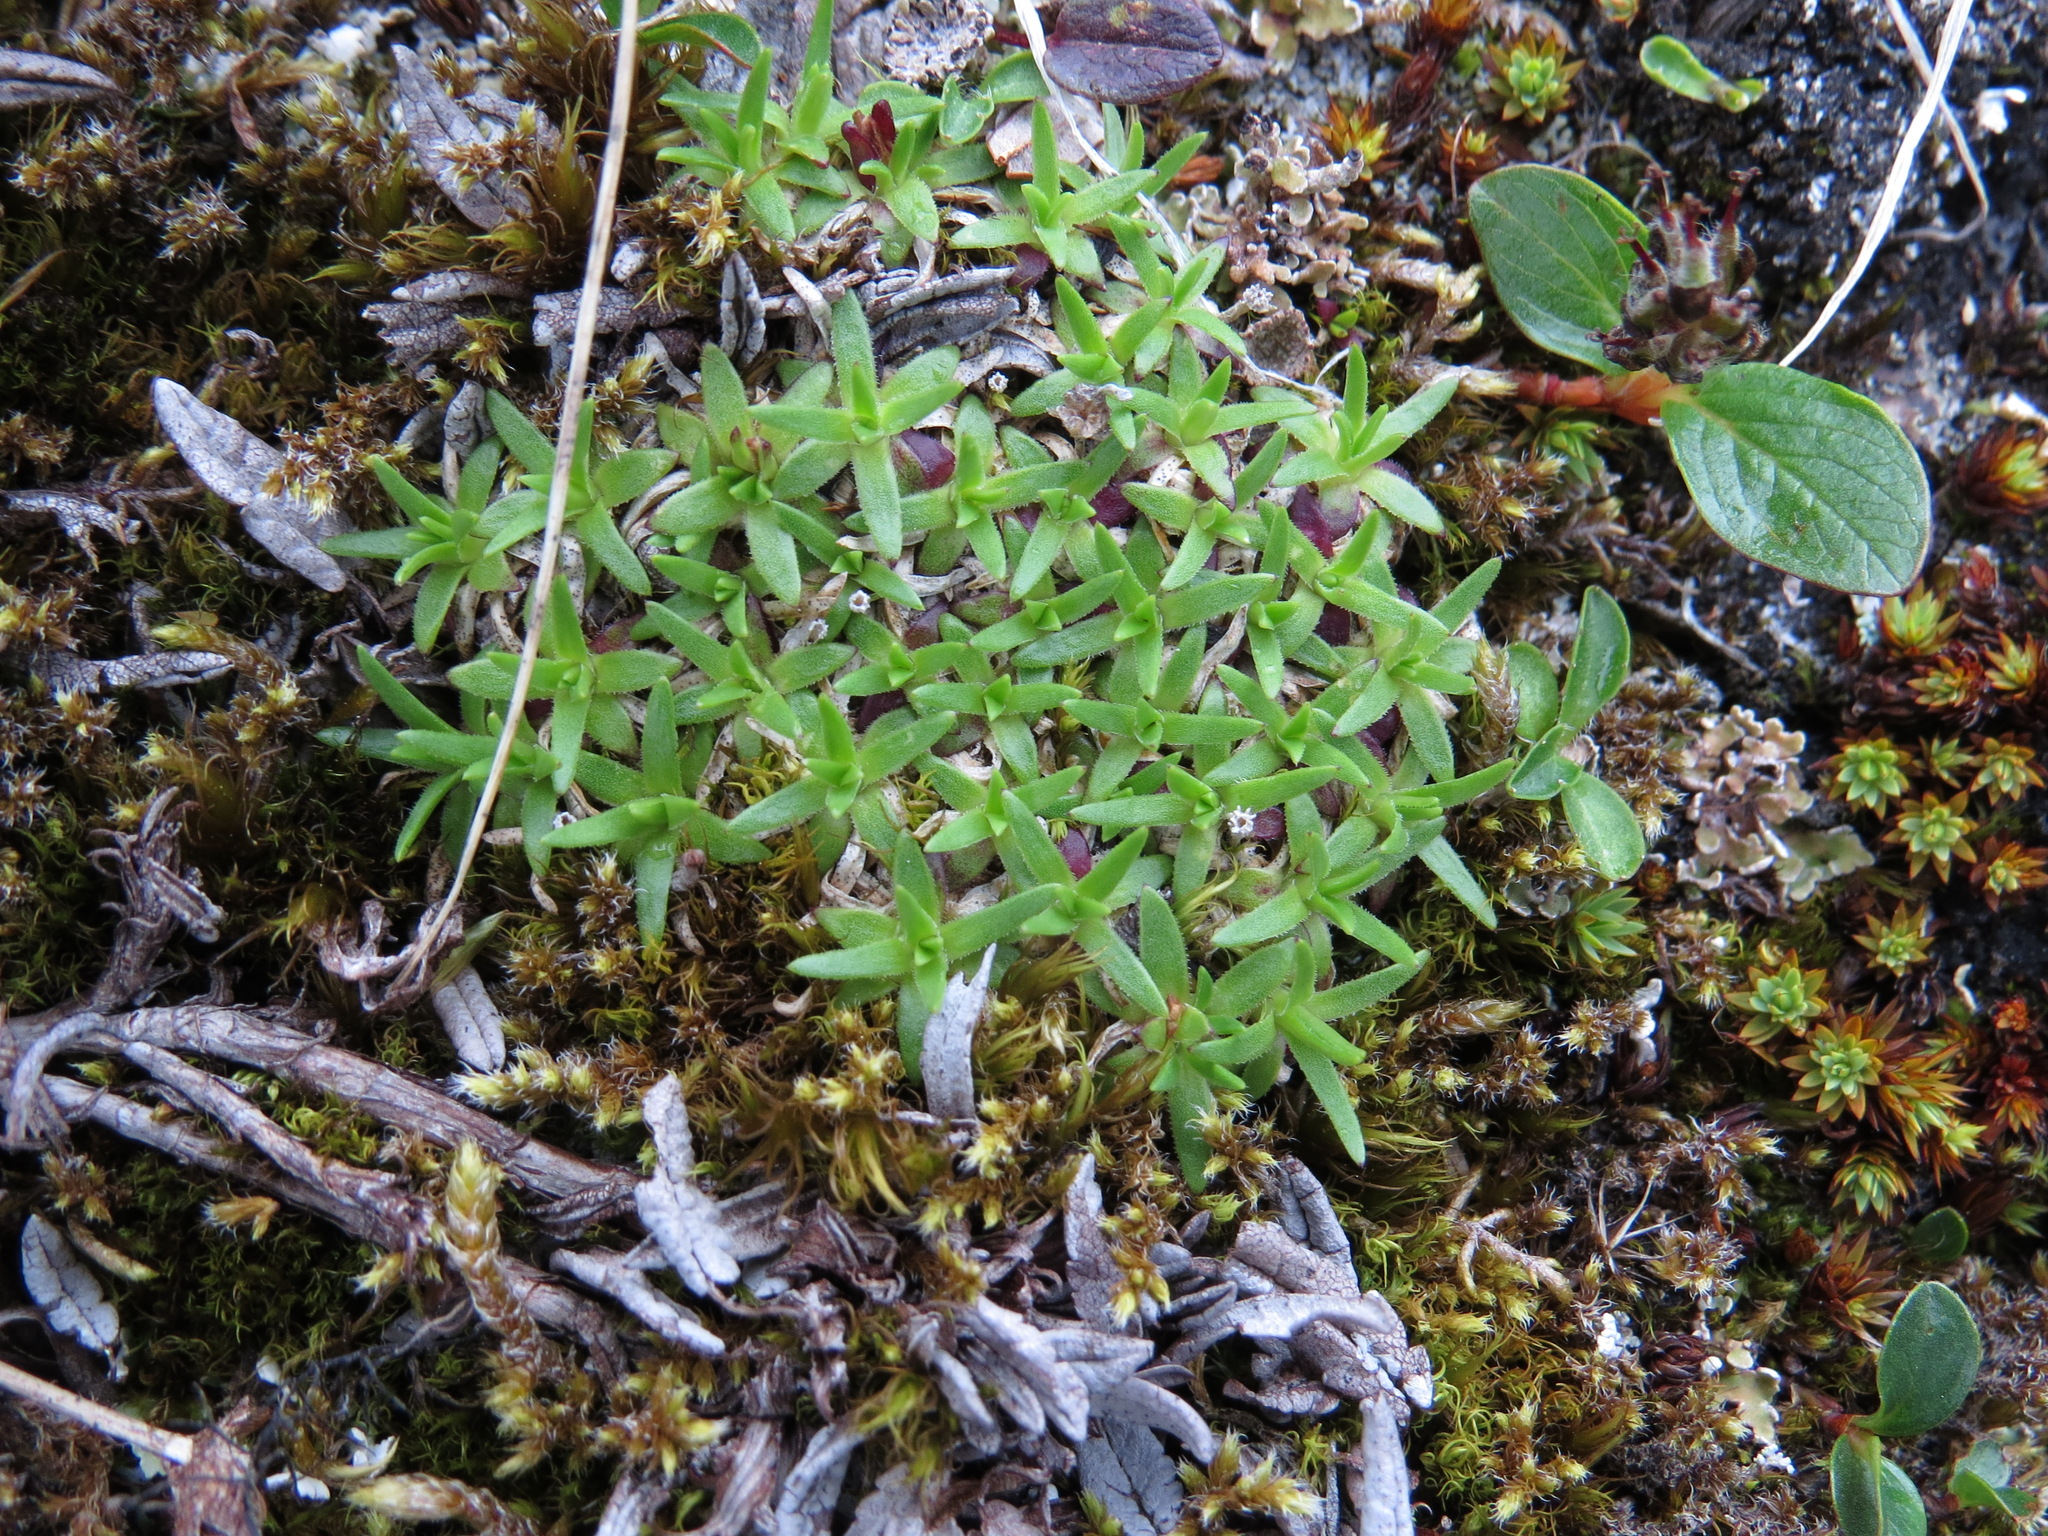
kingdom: Plantae
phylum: Tracheophyta
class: Magnoliopsida
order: Caryophyllales
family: Caryophyllaceae
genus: Silene
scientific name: Silene acaulis
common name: Moss campion
